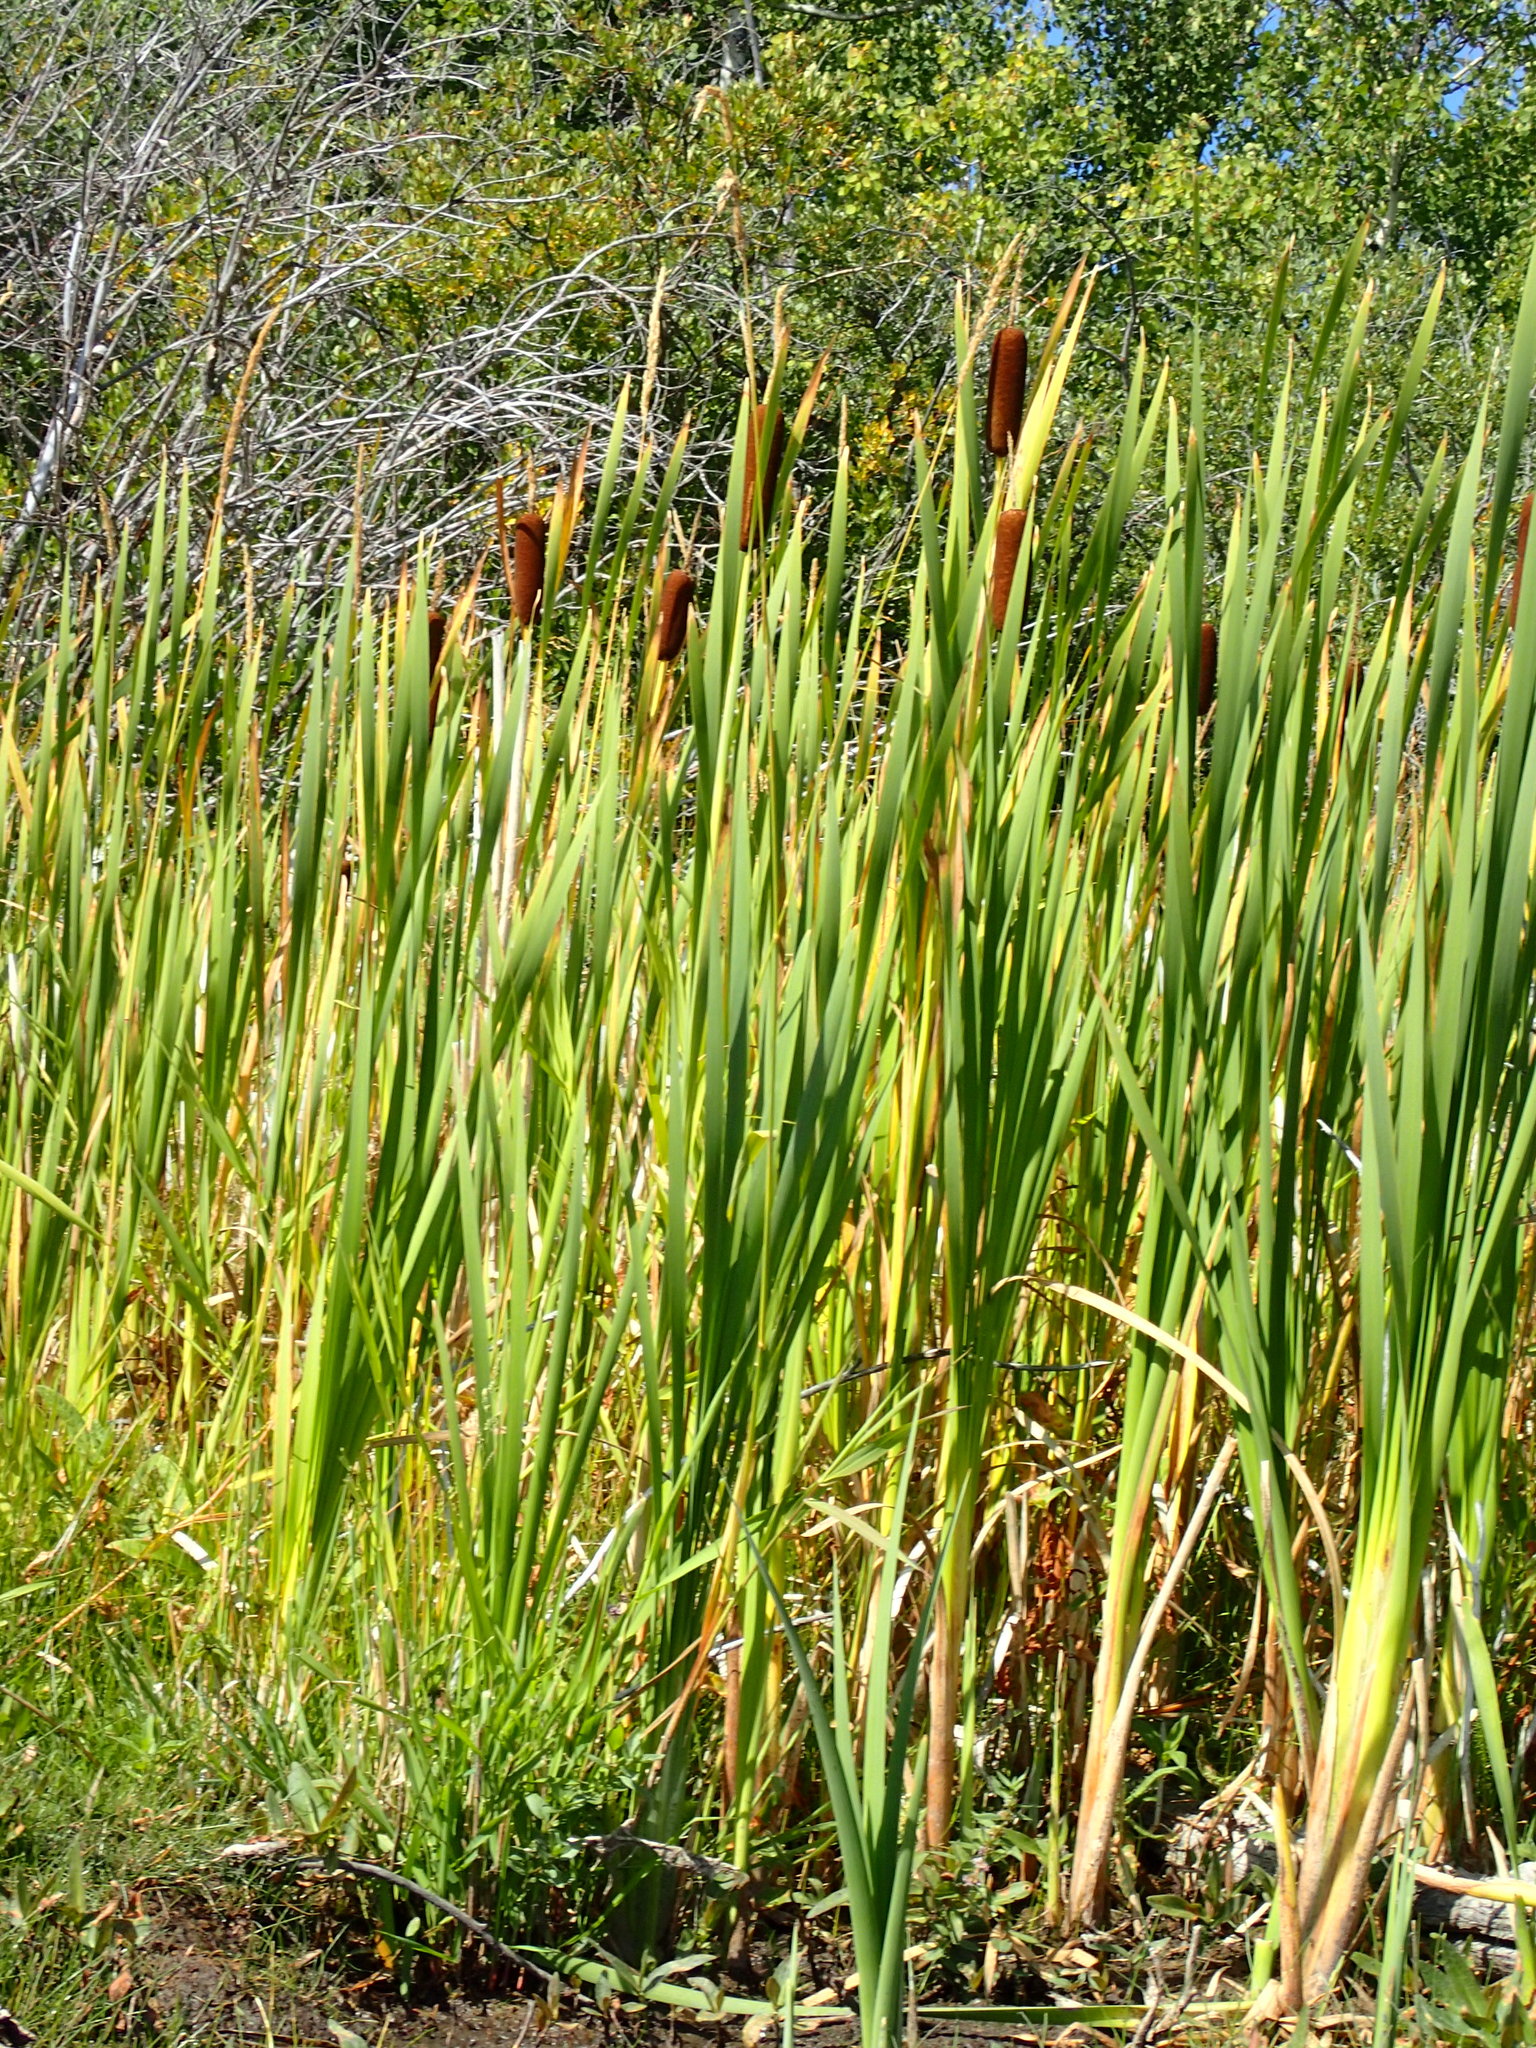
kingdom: Plantae
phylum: Tracheophyta
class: Liliopsida
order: Poales
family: Typhaceae
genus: Typha
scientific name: Typha latifolia
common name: Broadleaf cattail
